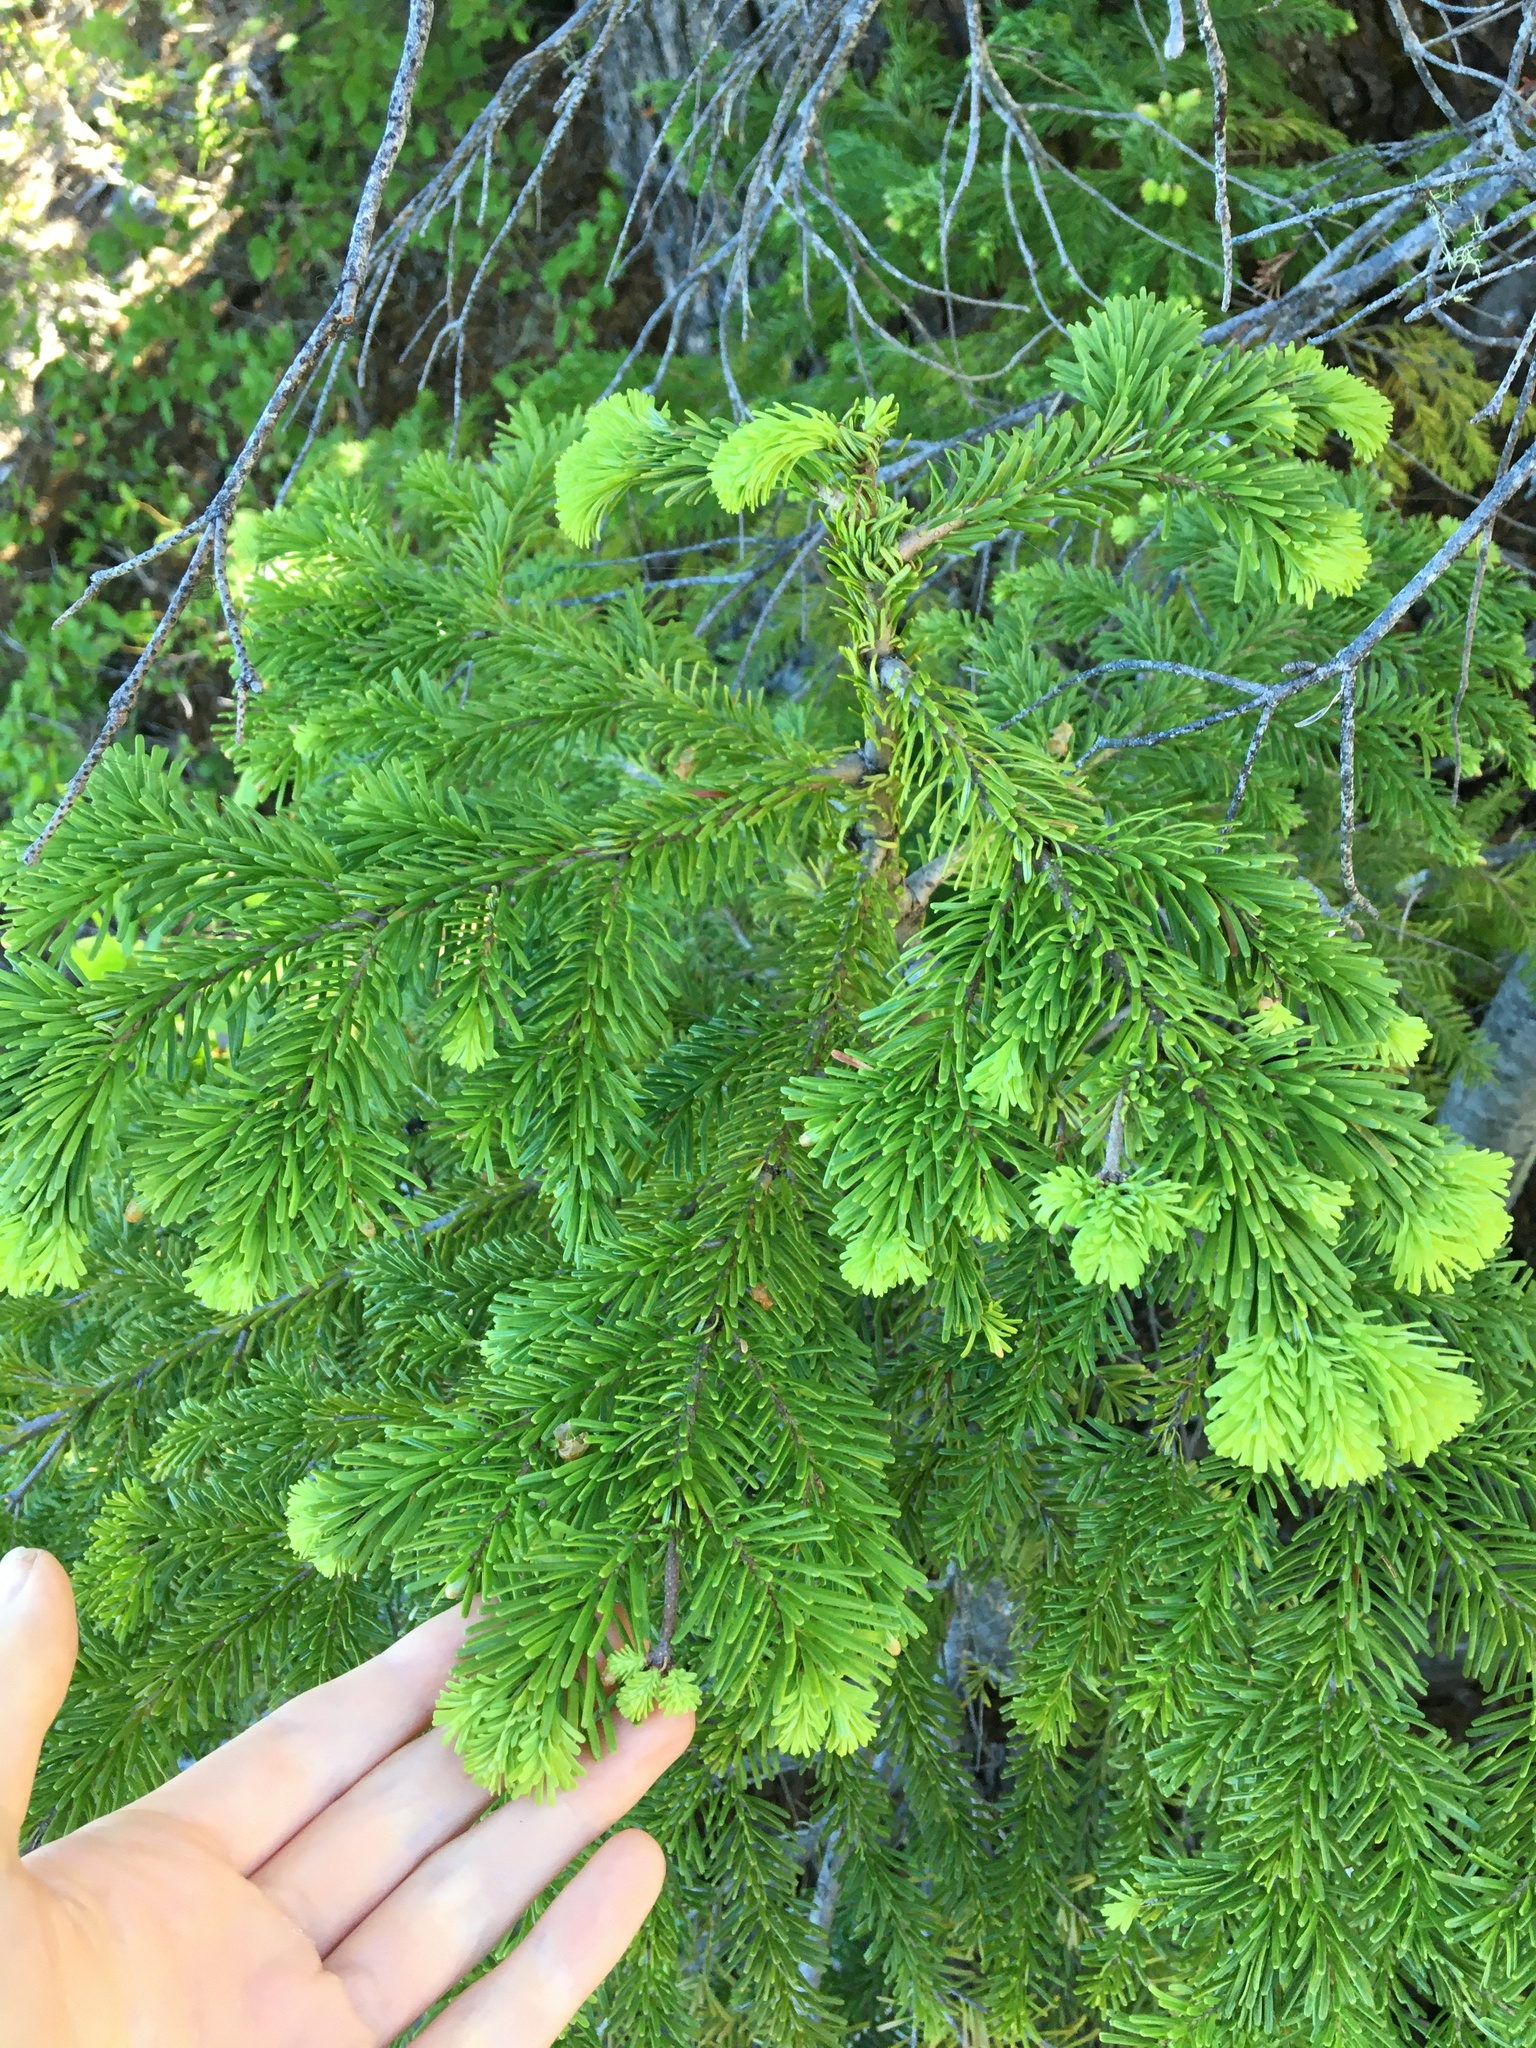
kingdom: Plantae
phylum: Tracheophyta
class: Pinopsida
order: Pinales
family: Pinaceae
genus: Abies
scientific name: Abies amabilis
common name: Pacific silver fir
